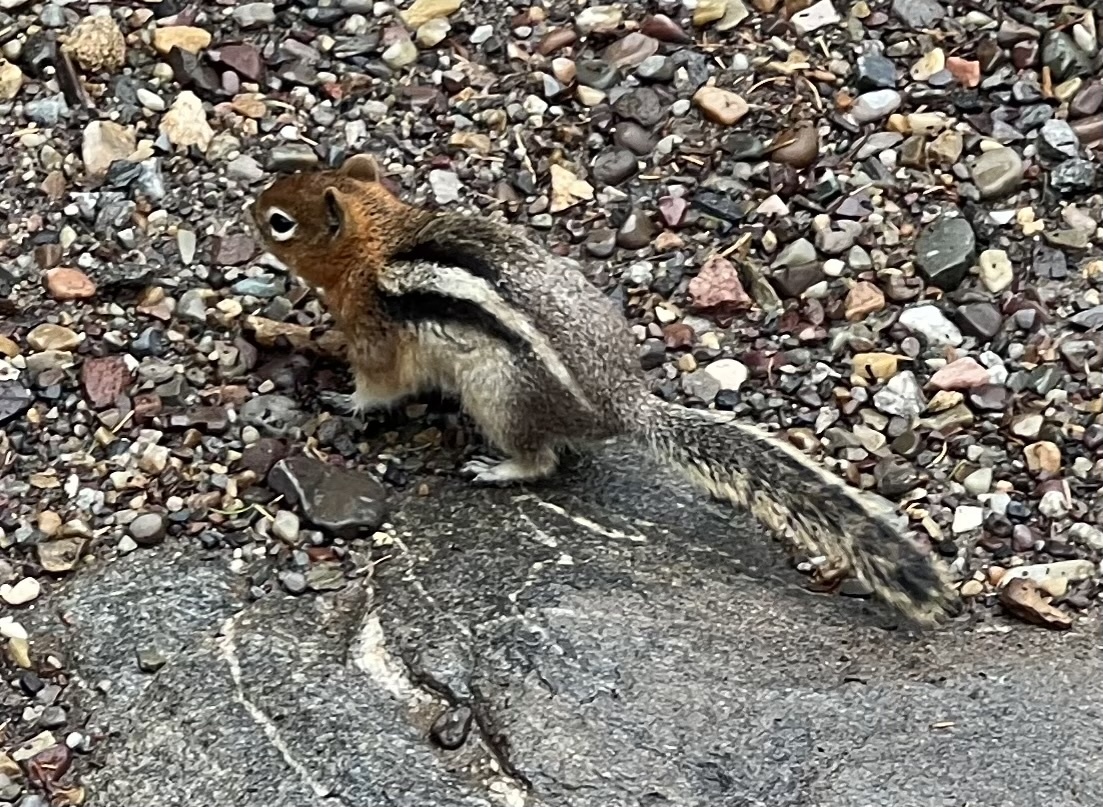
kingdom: Animalia
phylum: Chordata
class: Mammalia
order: Rodentia
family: Sciuridae
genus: Callospermophilus
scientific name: Callospermophilus lateralis
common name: Golden-mantled ground squirrel
